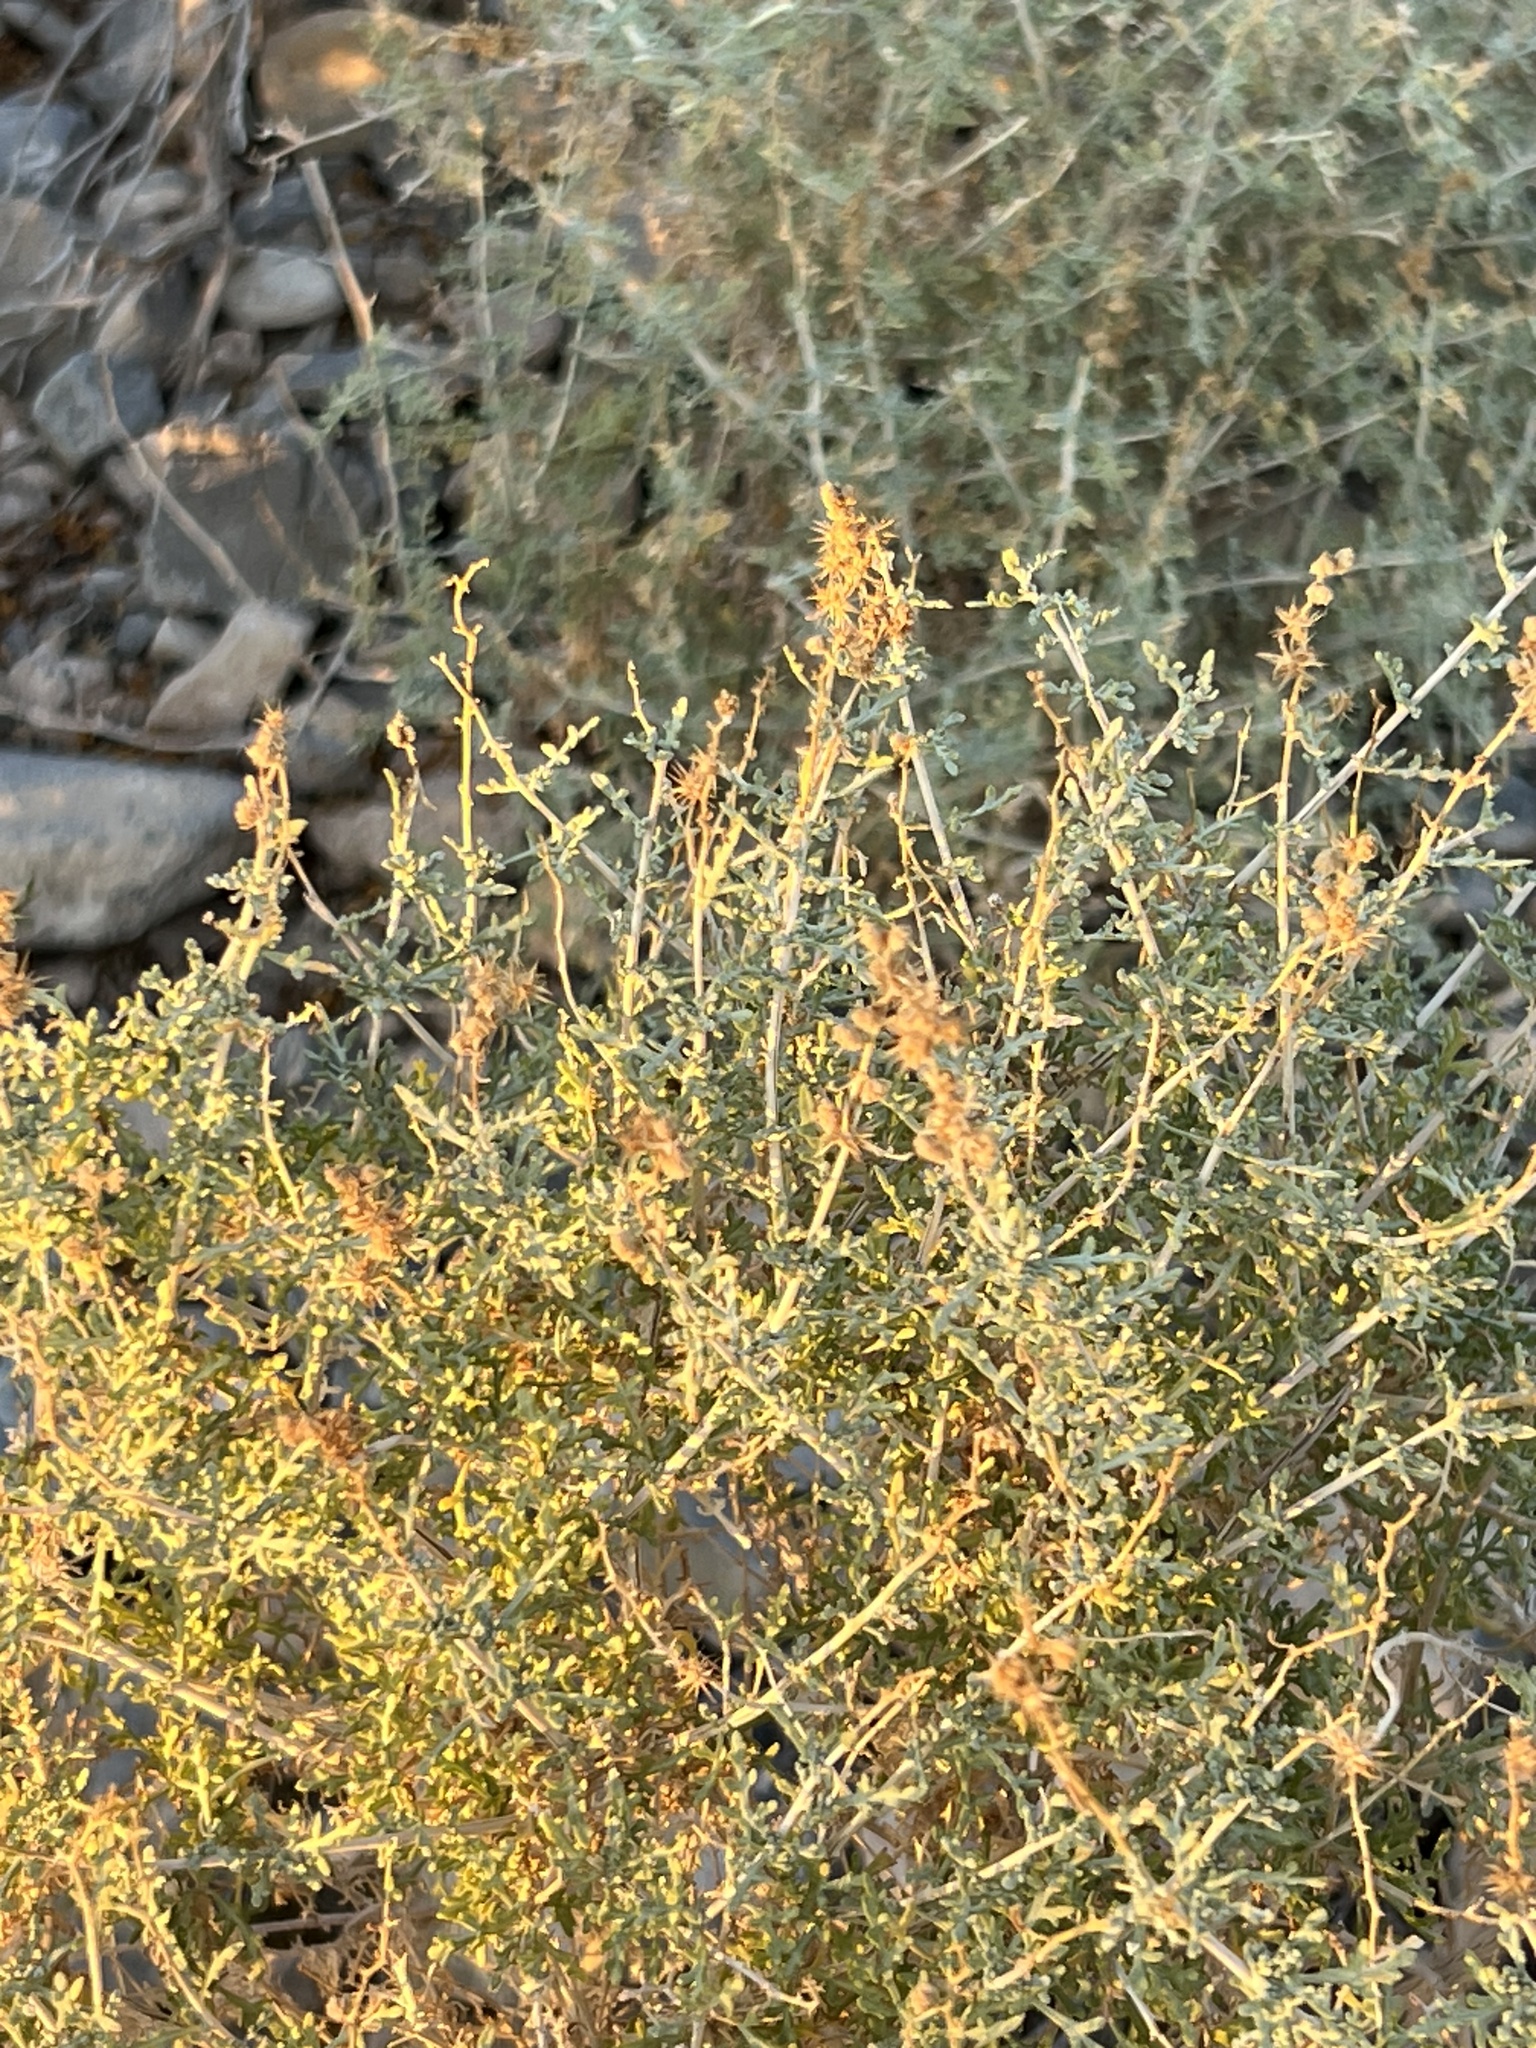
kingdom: Plantae
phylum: Tracheophyta
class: Magnoliopsida
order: Asterales
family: Asteraceae
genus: Ambrosia
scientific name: Ambrosia dumosa
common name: Bur-sage
